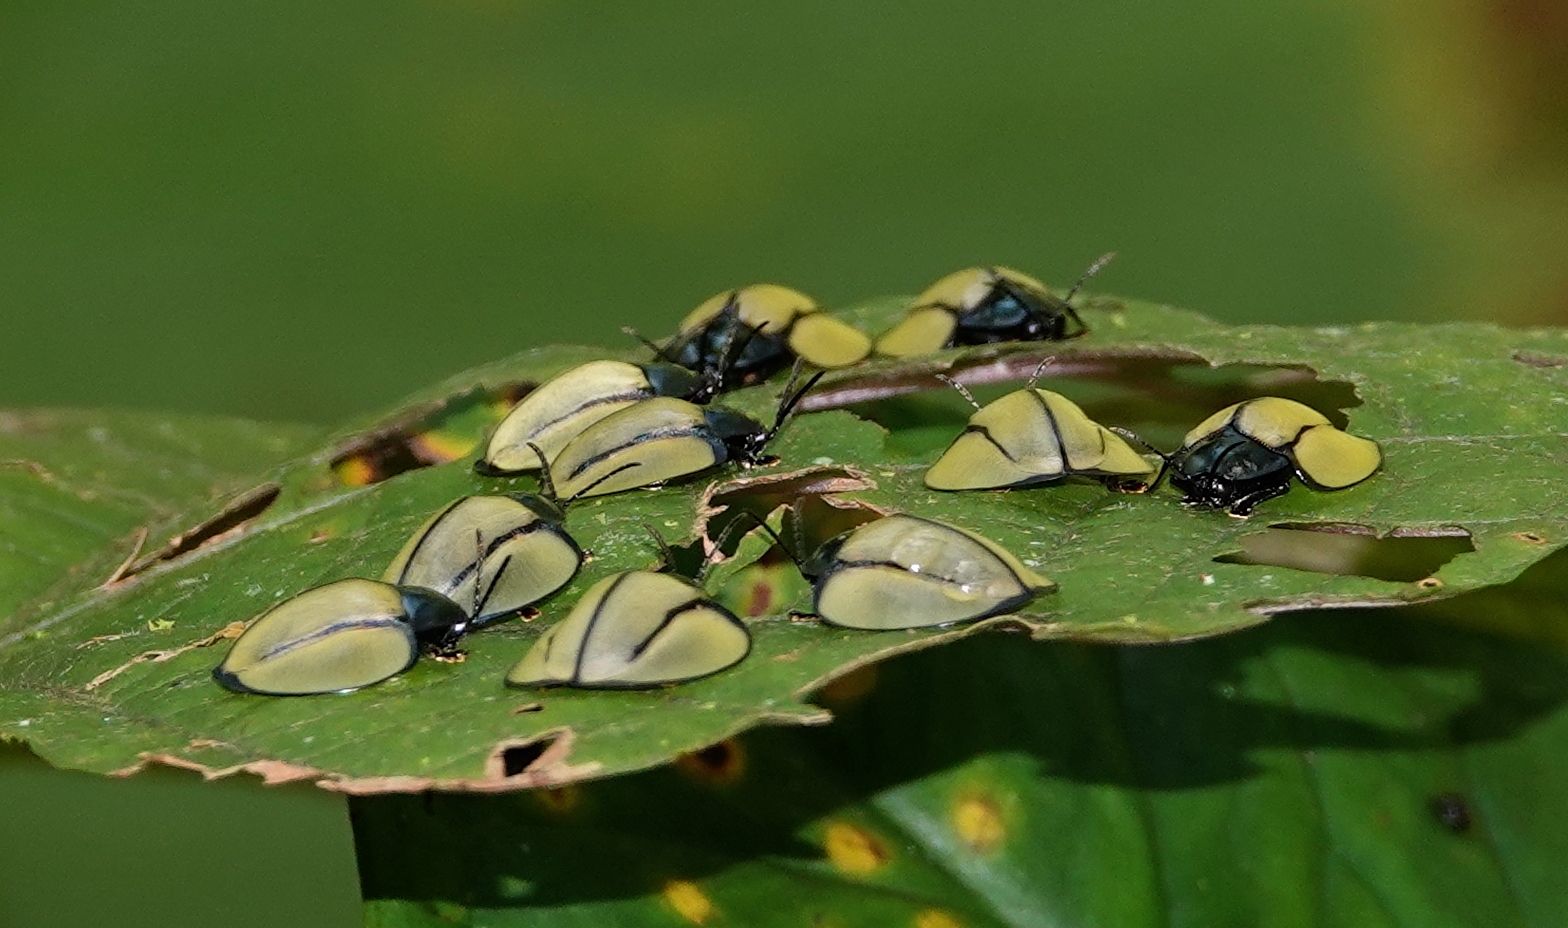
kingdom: Animalia
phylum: Arthropoda
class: Insecta
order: Coleoptera
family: Chrysomelidae
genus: Omaspides
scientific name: Omaspides nitidicollis
